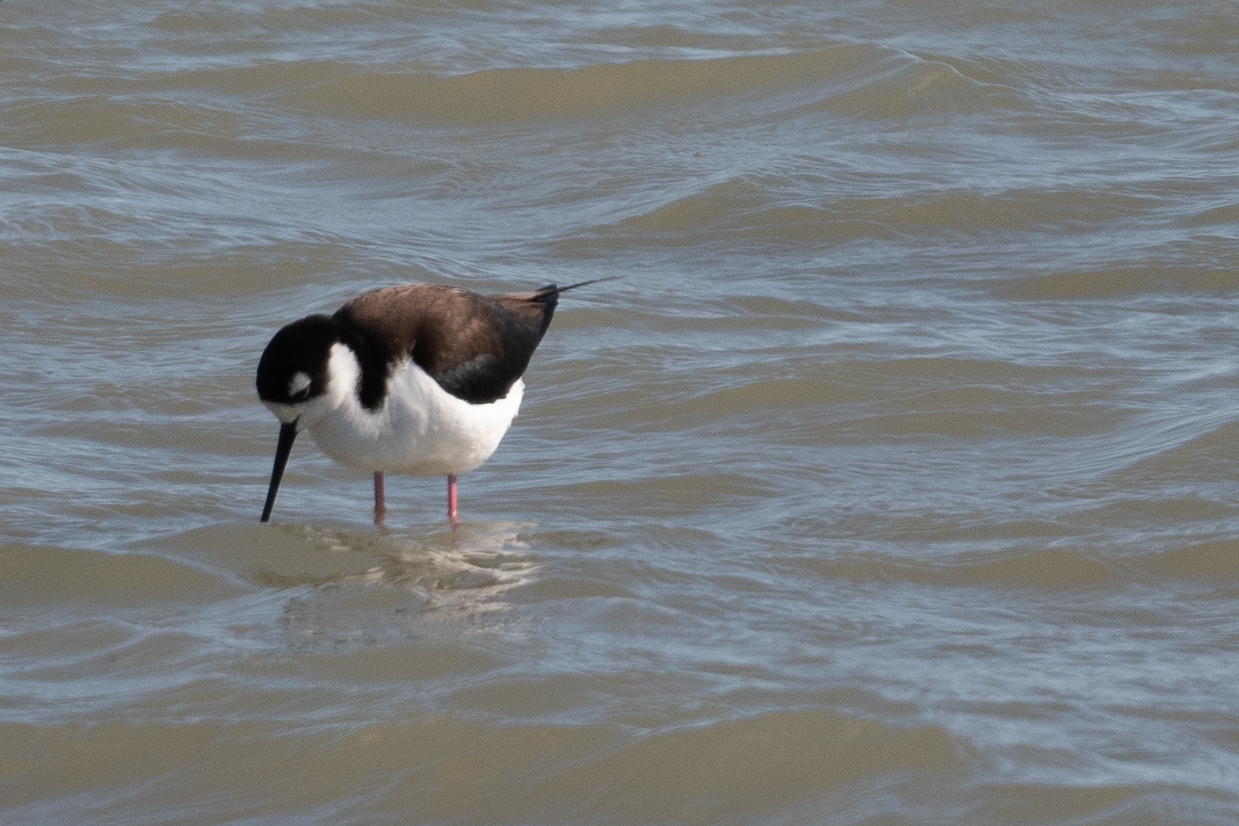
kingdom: Animalia
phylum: Chordata
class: Aves
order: Charadriiformes
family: Recurvirostridae
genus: Himantopus
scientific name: Himantopus mexicanus
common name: Black-necked stilt
